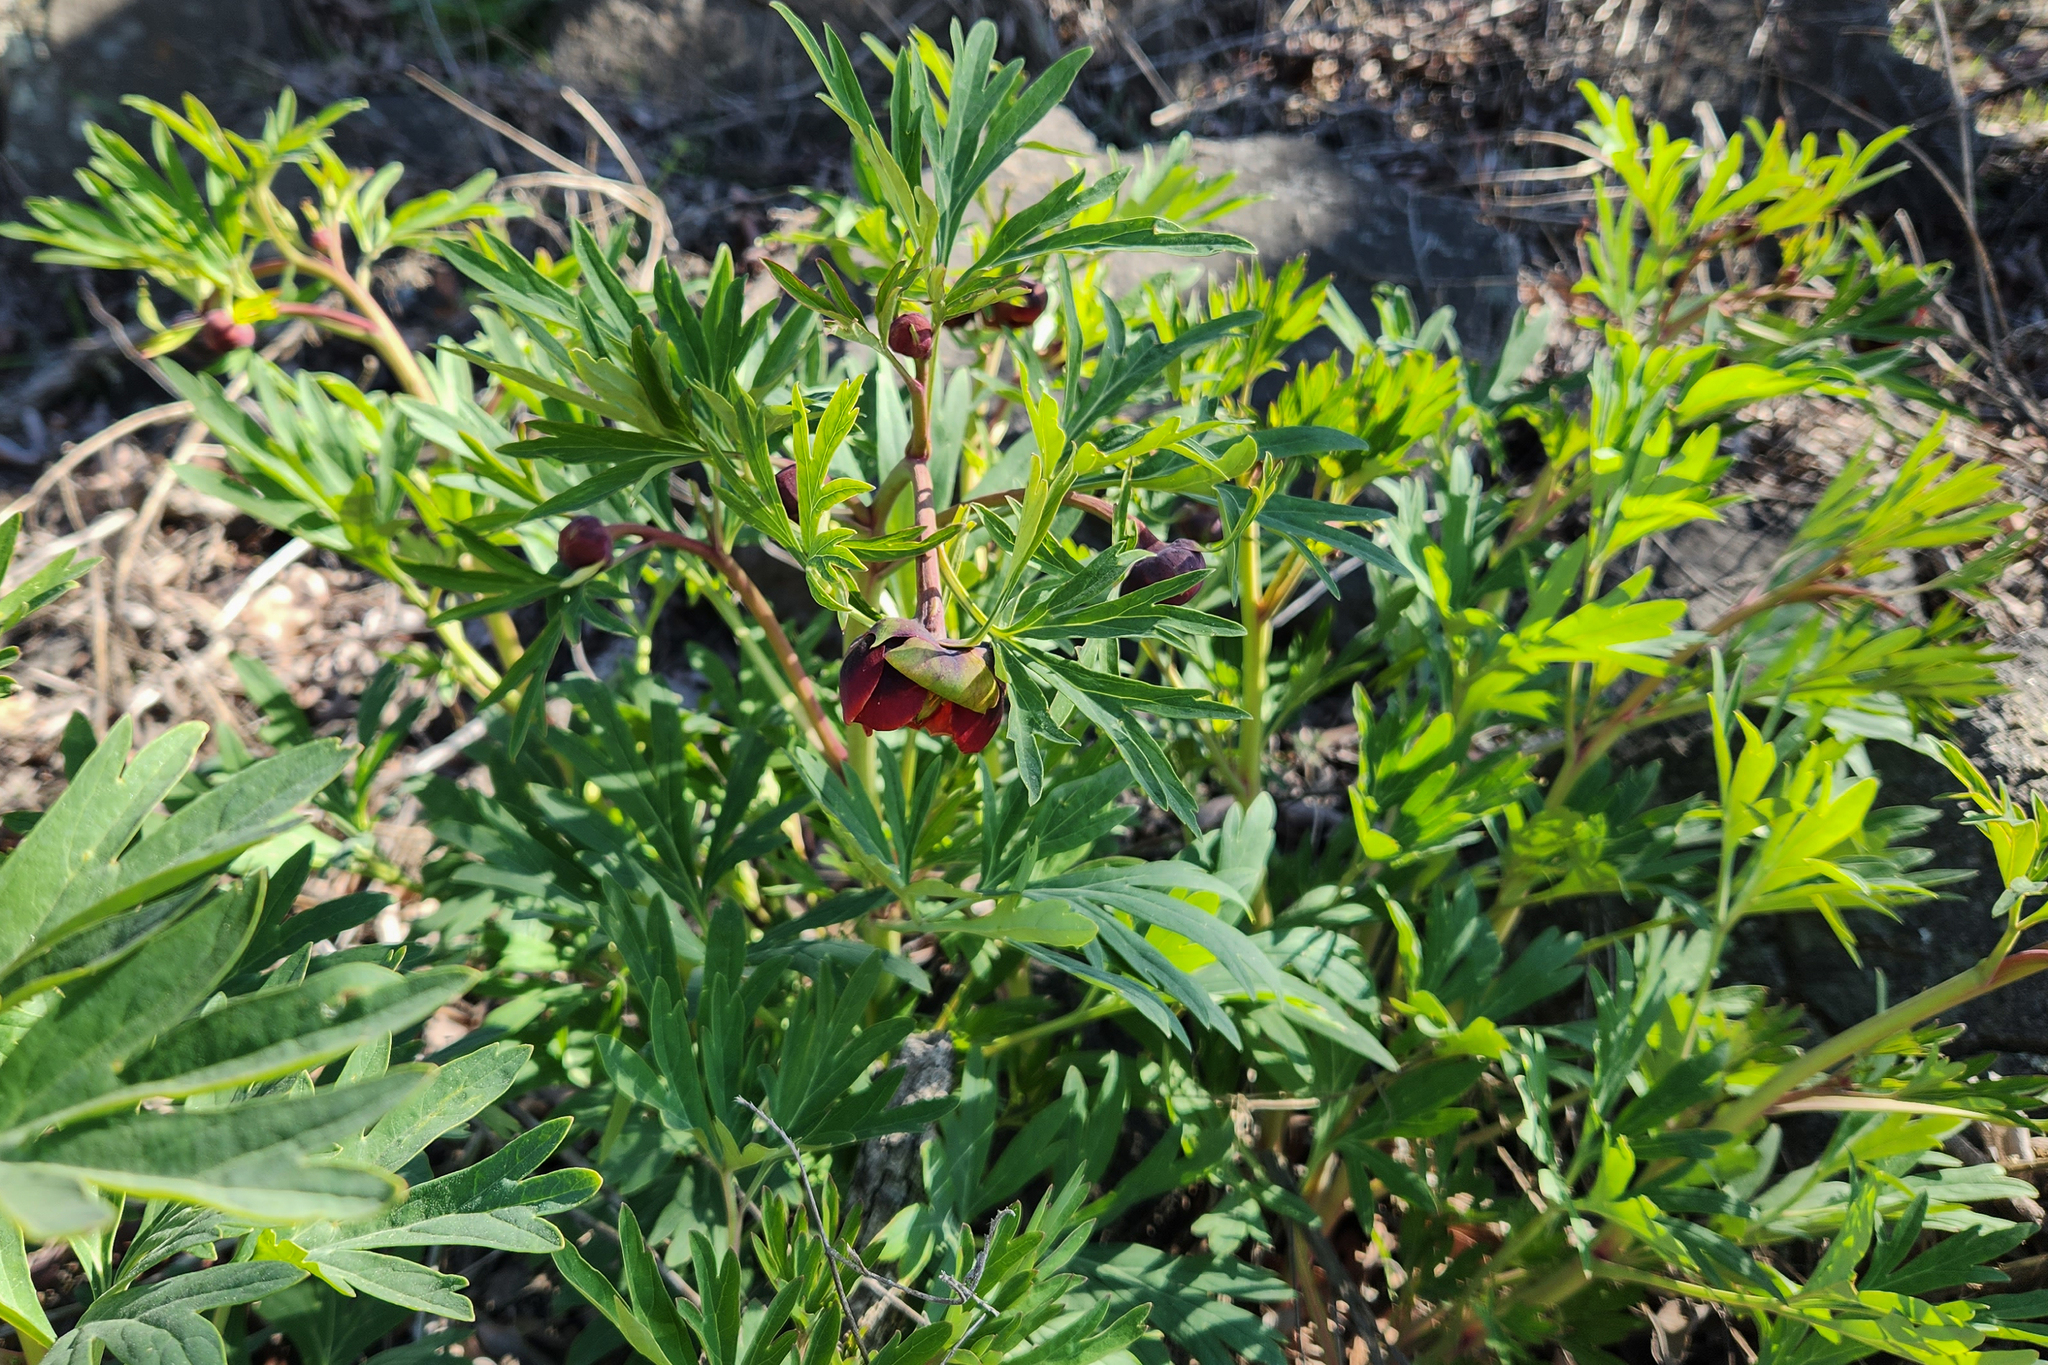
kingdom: Plantae
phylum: Tracheophyta
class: Magnoliopsida
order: Saxifragales
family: Paeoniaceae
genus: Paeonia
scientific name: Paeonia californica
